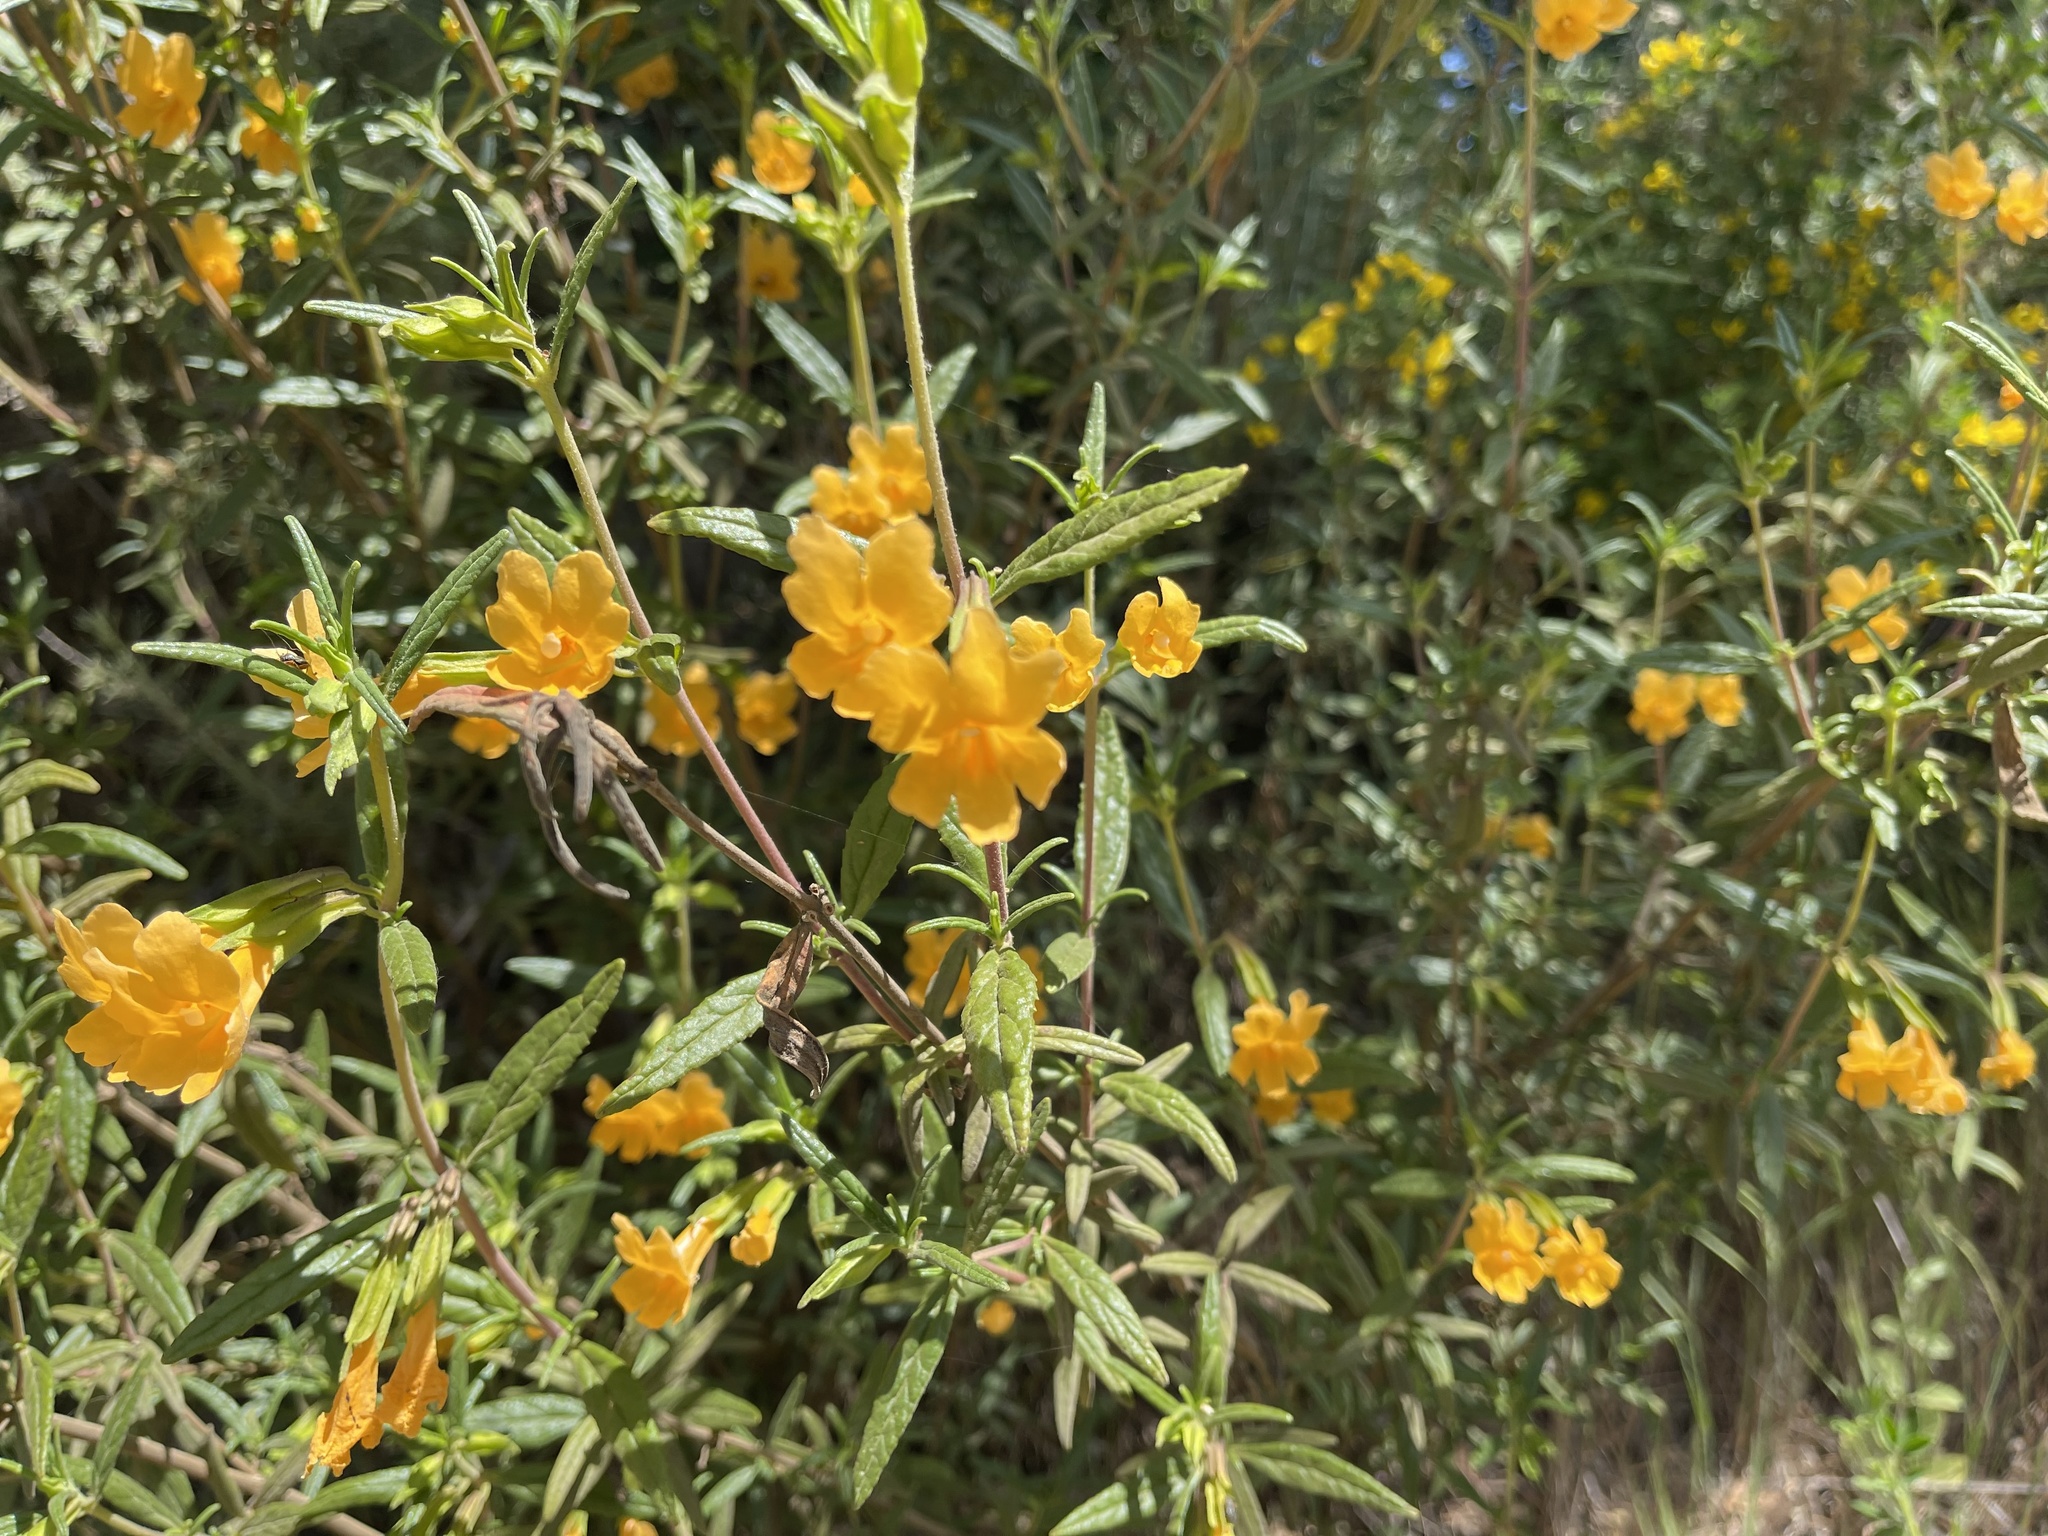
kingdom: Plantae
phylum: Tracheophyta
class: Magnoliopsida
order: Lamiales
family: Phrymaceae
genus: Diplacus
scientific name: Diplacus aurantiacus
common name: Bush monkey-flower
